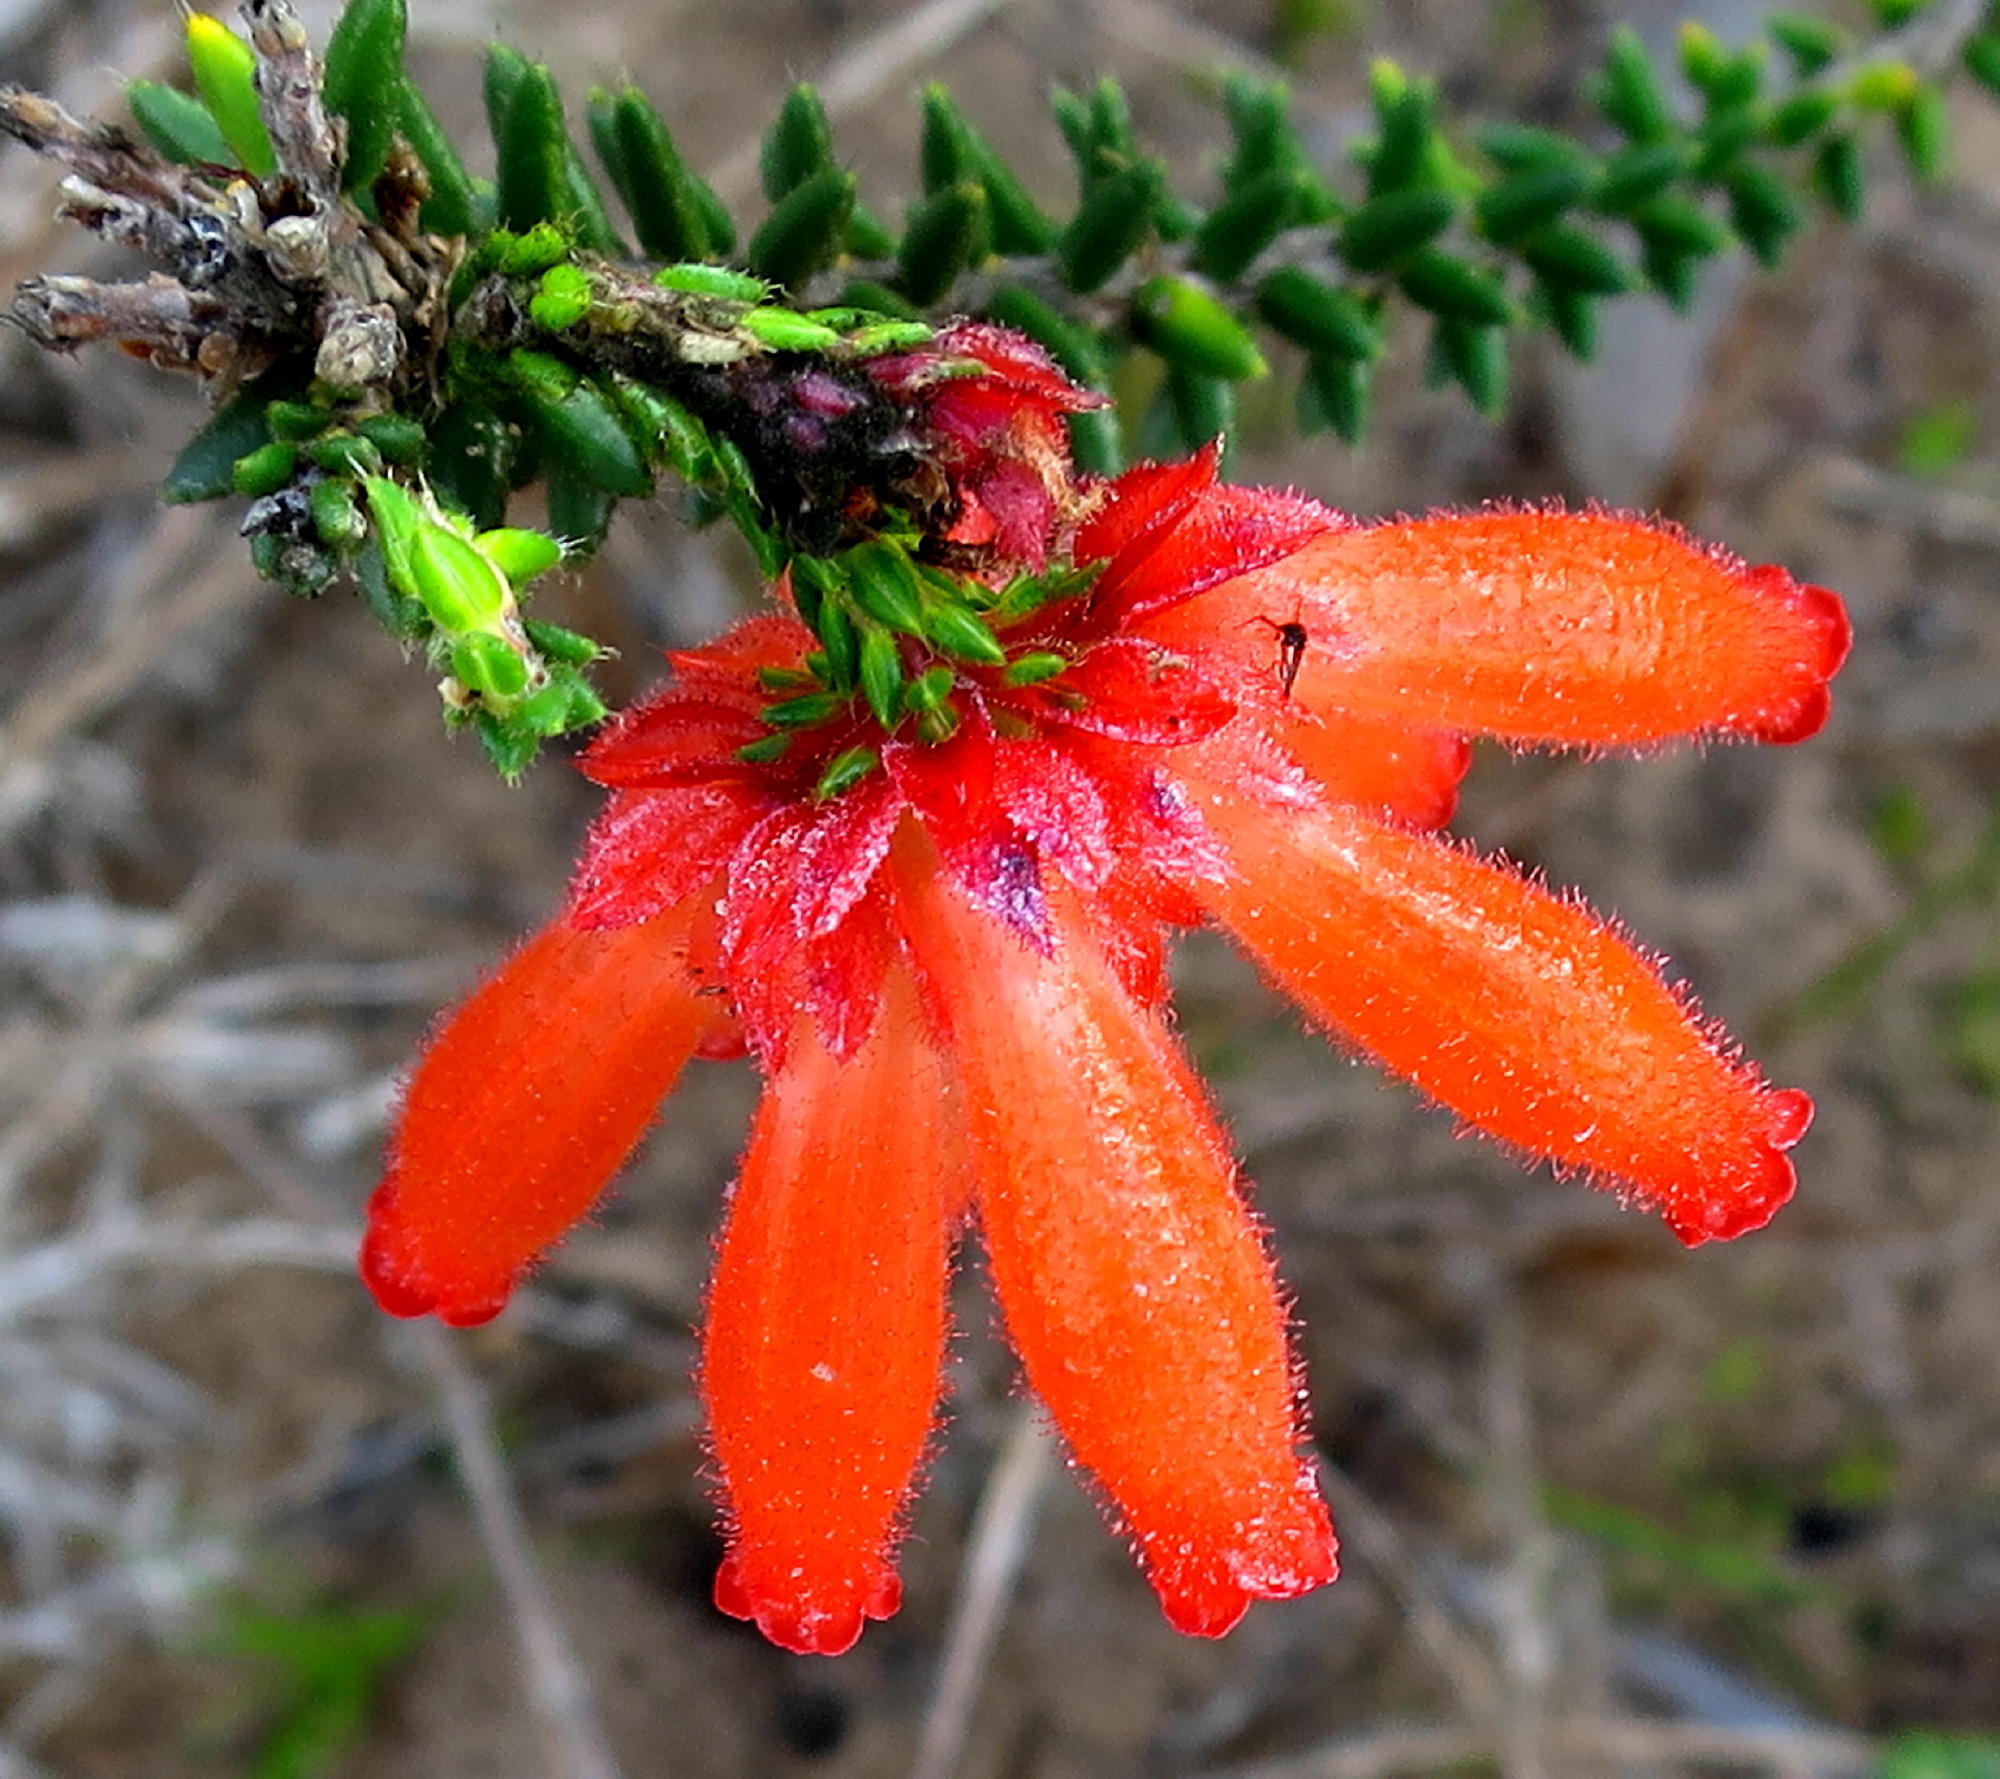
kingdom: Plantae
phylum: Tracheophyta
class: Magnoliopsida
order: Ericales
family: Ericaceae
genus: Erica
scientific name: Erica cerinthoides
